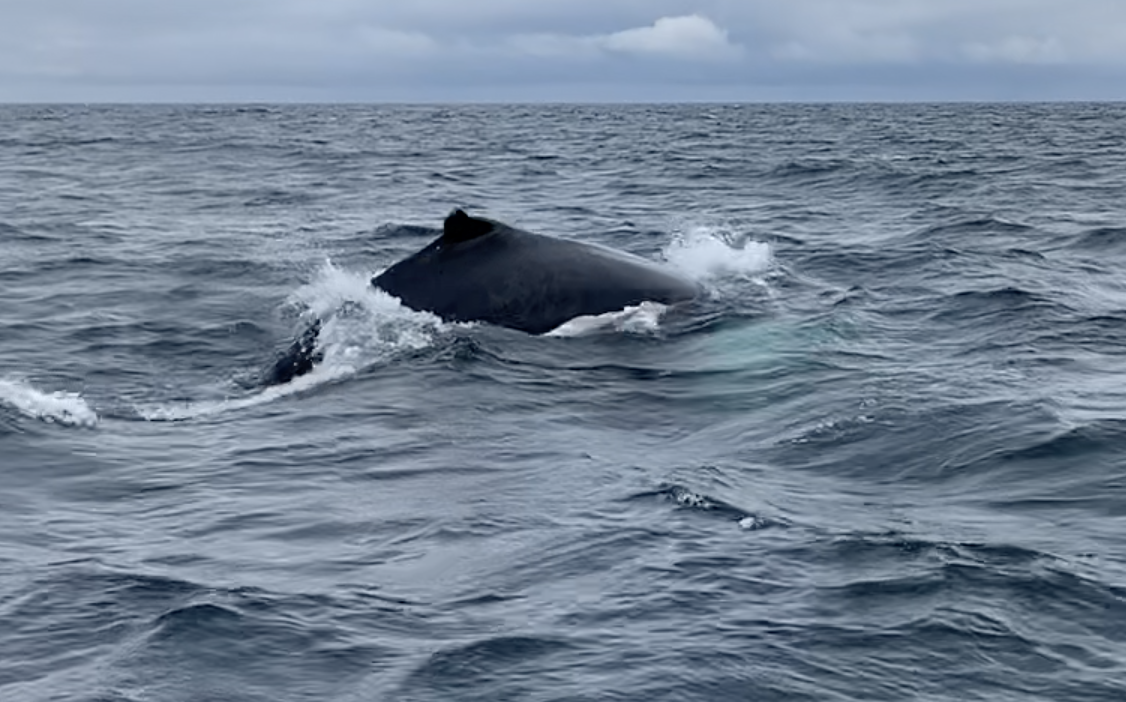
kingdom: Animalia
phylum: Chordata
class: Mammalia
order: Cetacea
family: Balaenopteridae
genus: Megaptera
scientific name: Megaptera novaeangliae
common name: Humpback whale
